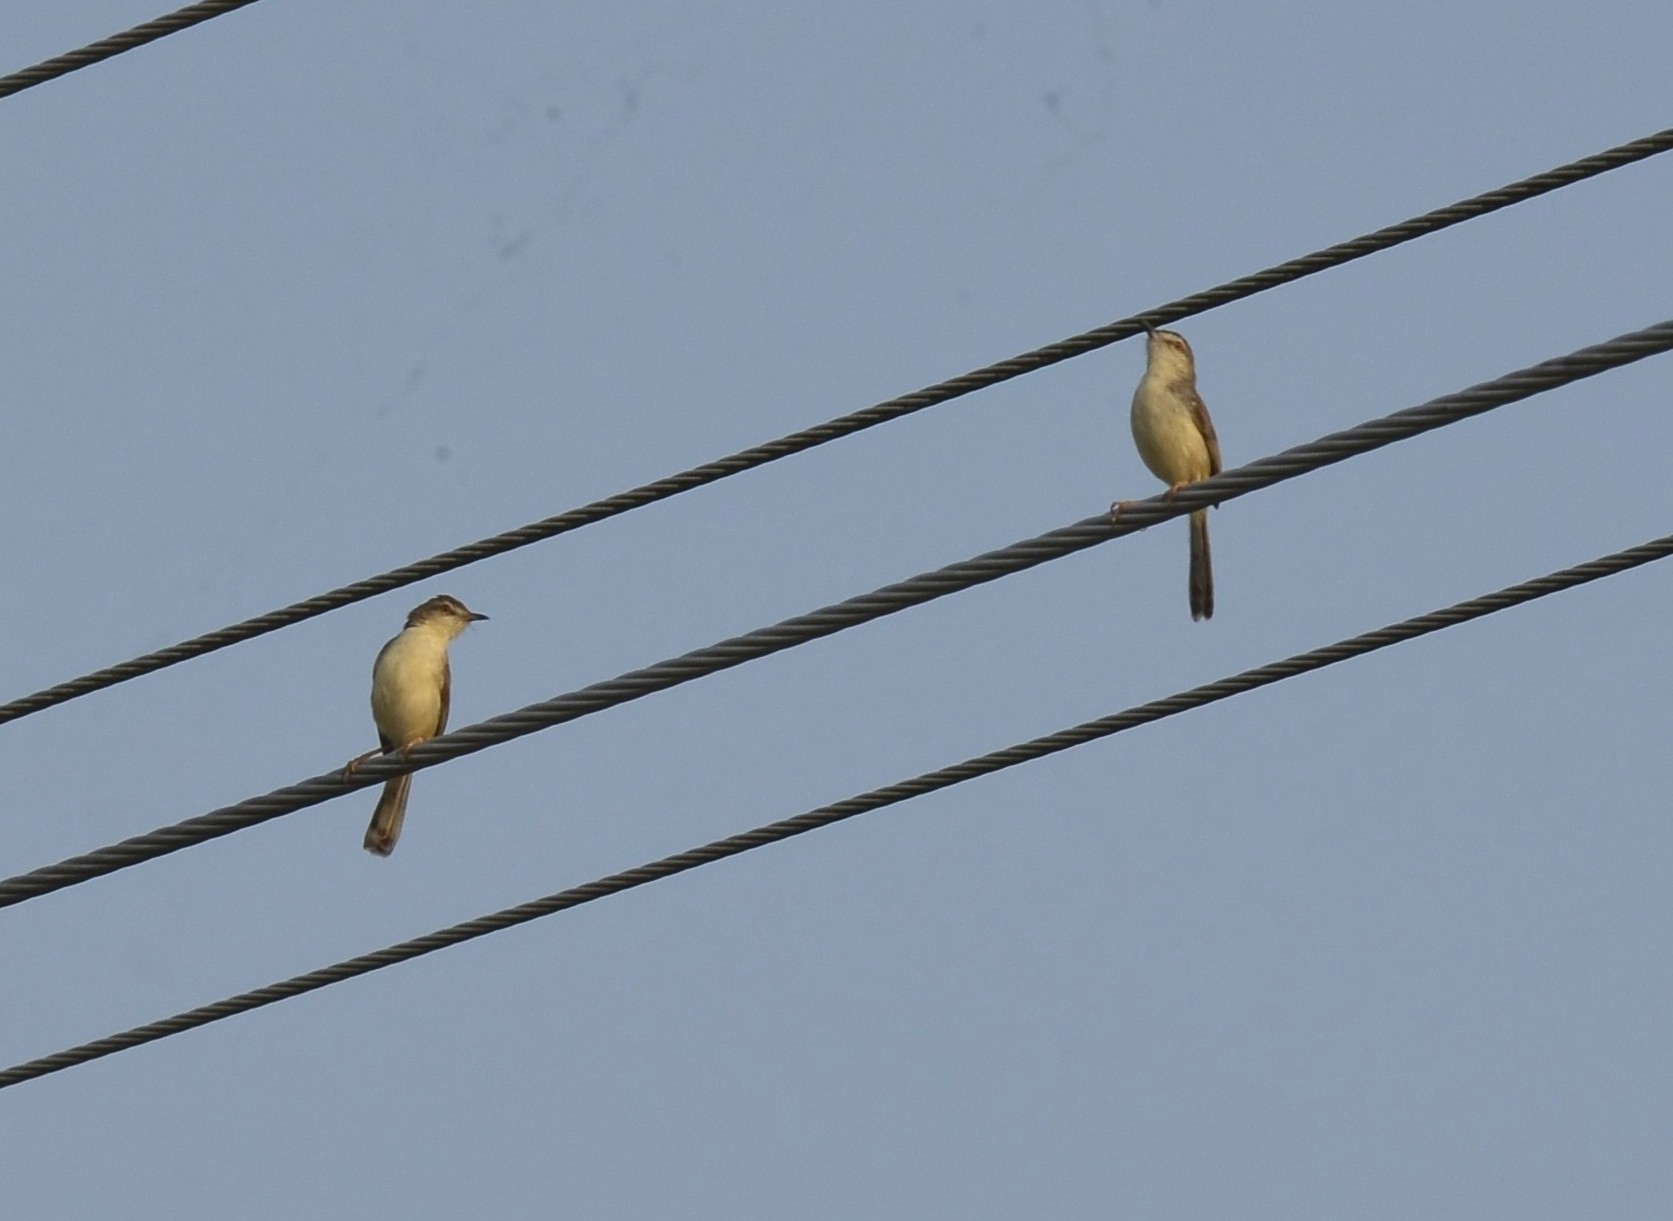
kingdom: Animalia
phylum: Chordata
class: Aves
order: Passeriformes
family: Cisticolidae
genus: Prinia
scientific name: Prinia inornata
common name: Plain prinia
